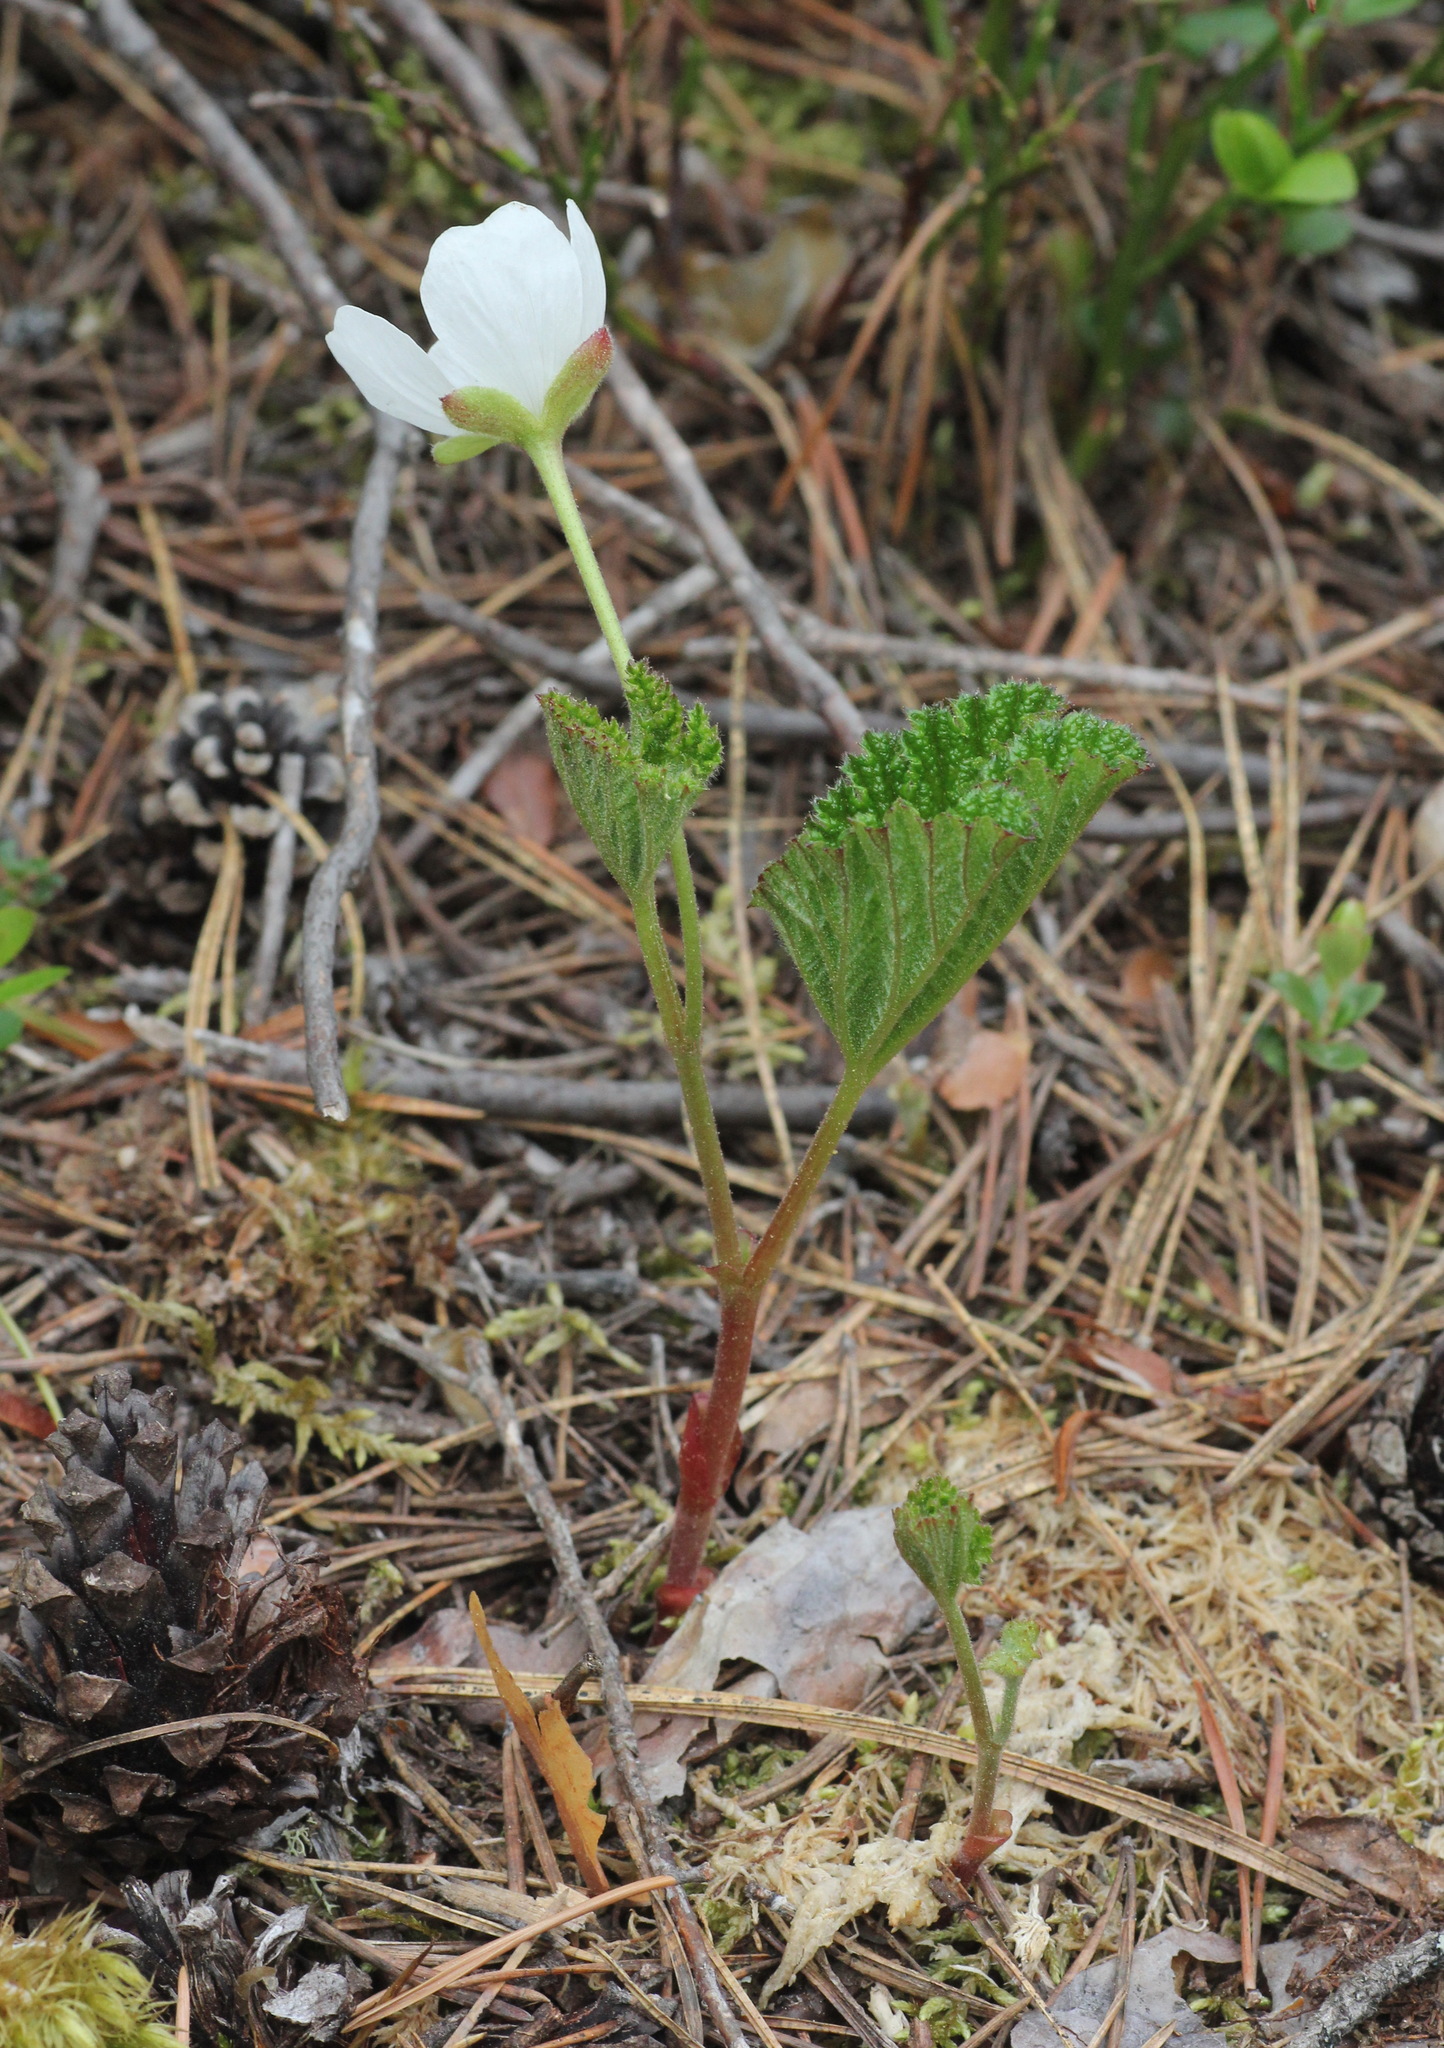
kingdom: Plantae
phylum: Tracheophyta
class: Magnoliopsida
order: Rosales
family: Rosaceae
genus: Rubus
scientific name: Rubus chamaemorus
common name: Cloudberry
